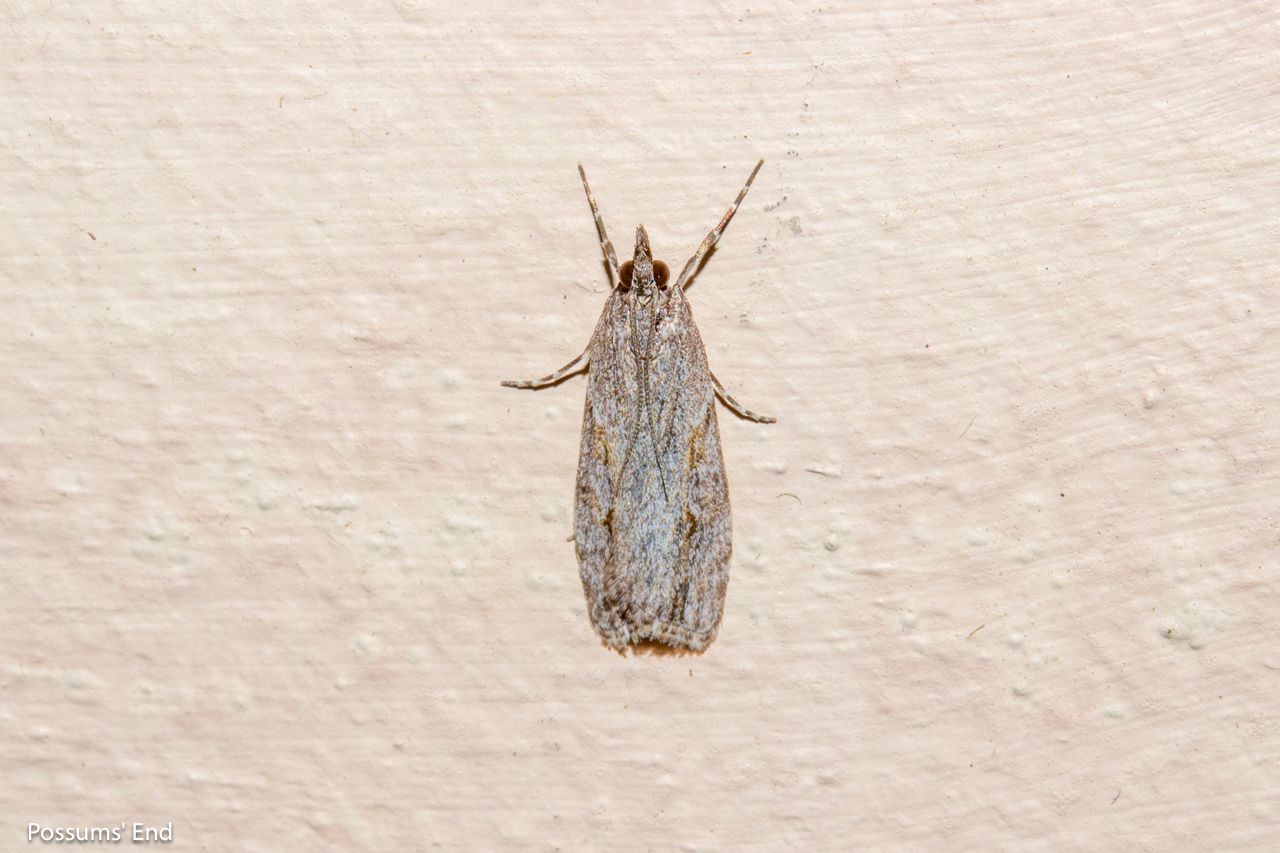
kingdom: Animalia
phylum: Arthropoda
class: Insecta
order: Lepidoptera
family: Crambidae
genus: Eudonia
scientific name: Eudonia cymatias
